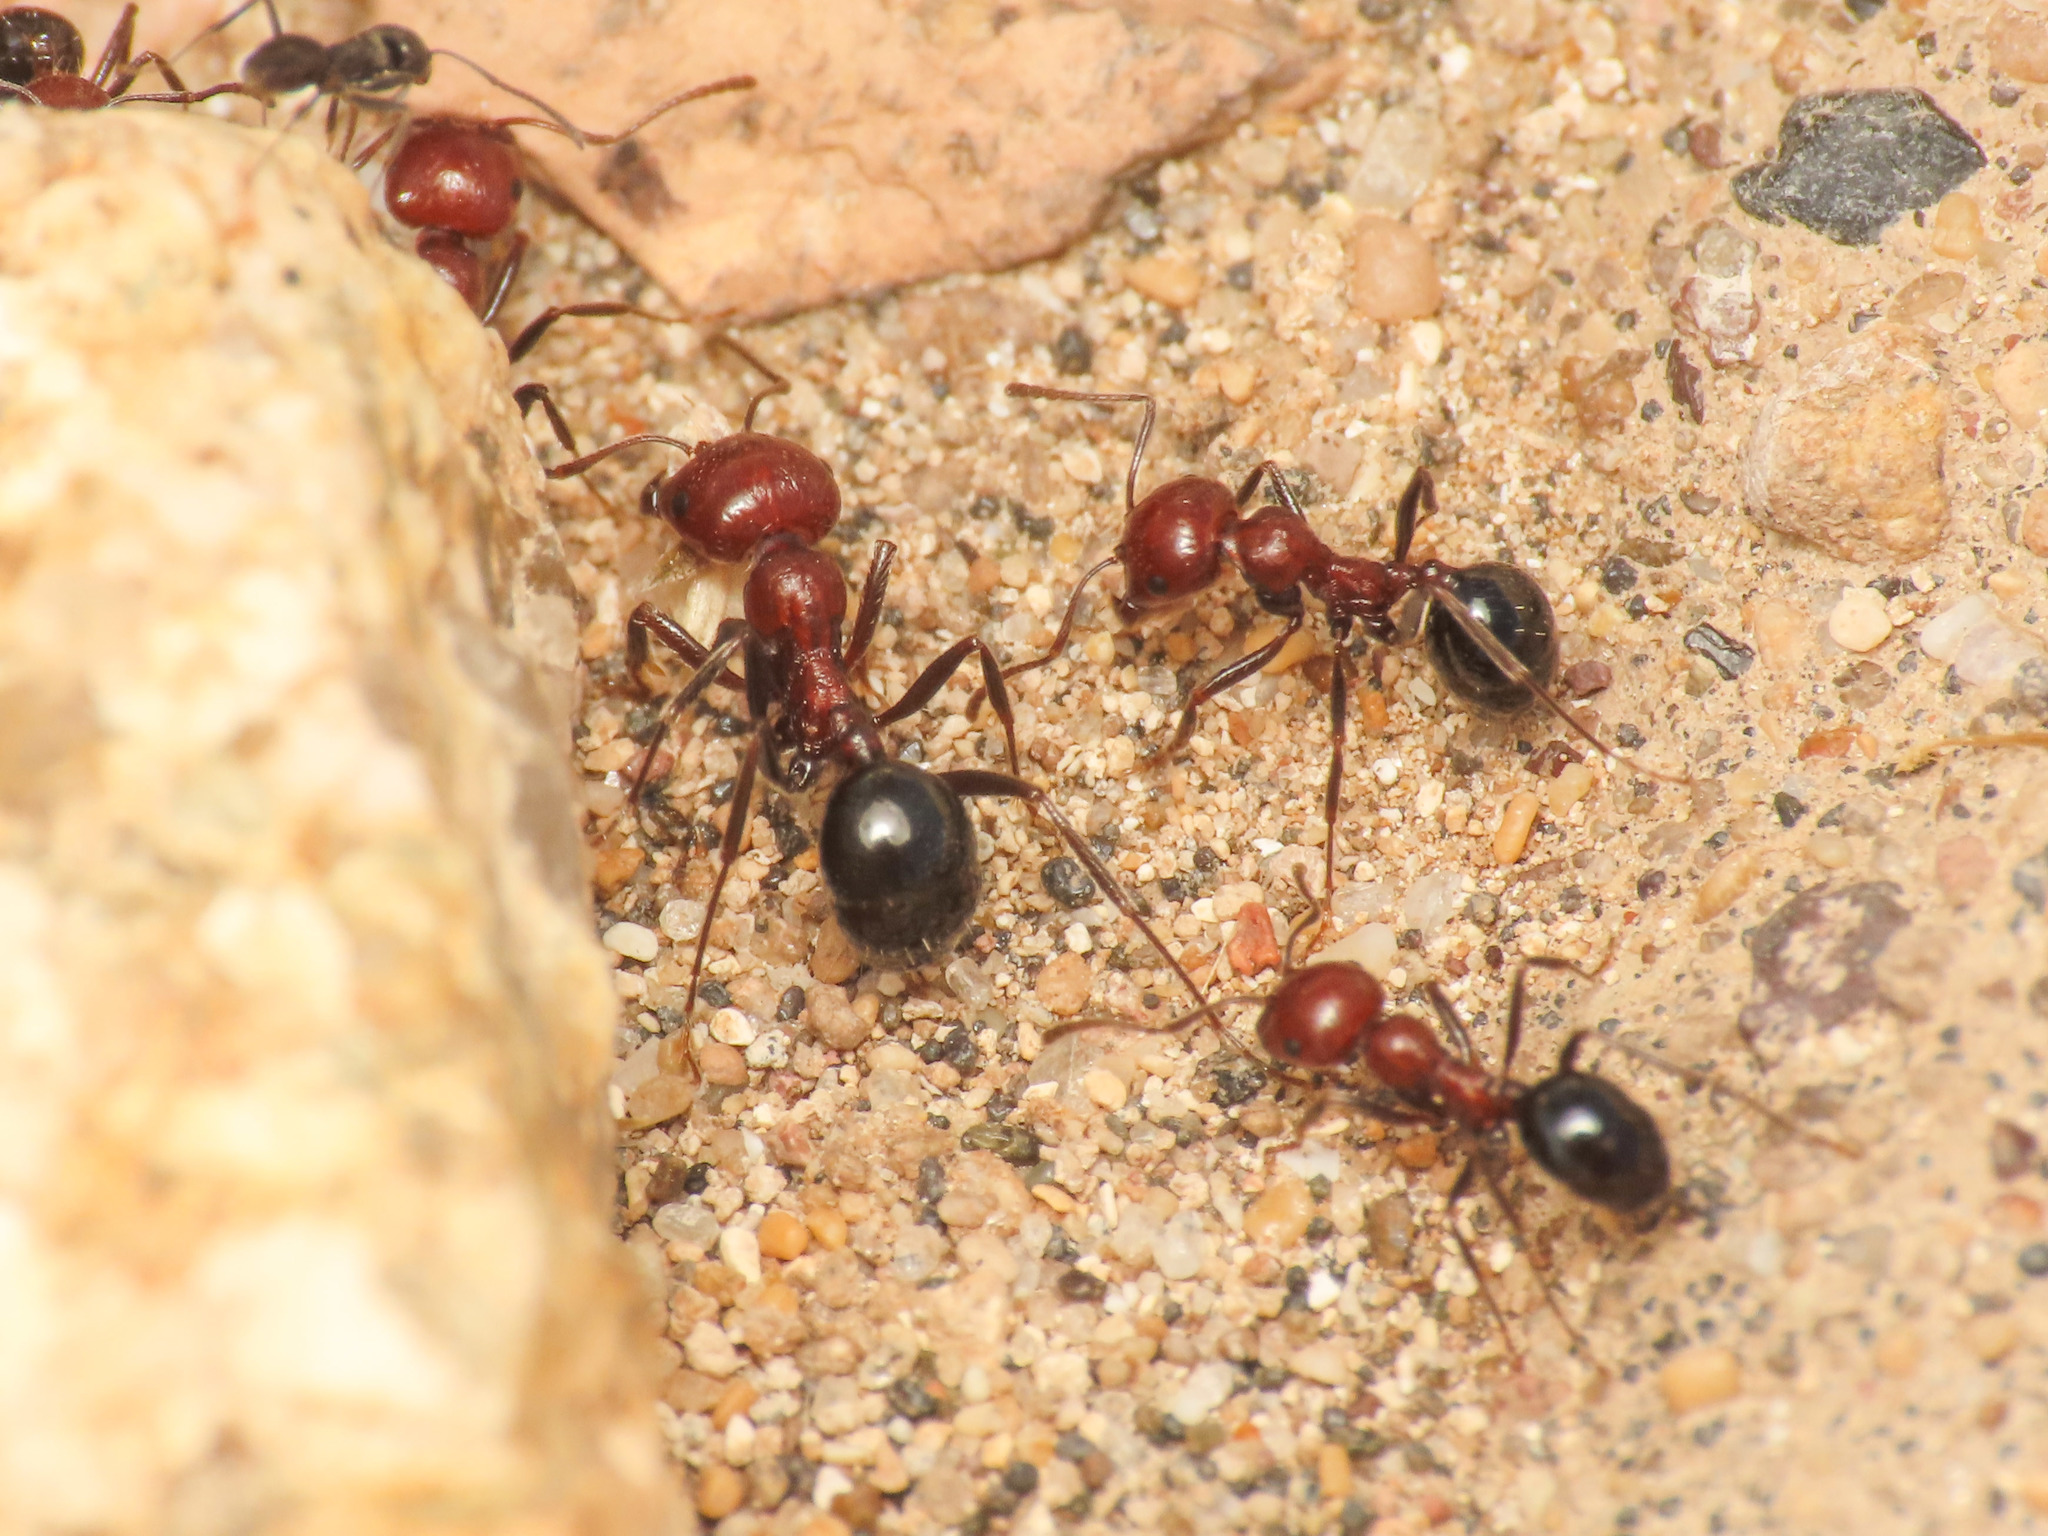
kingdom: Animalia
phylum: Arthropoda
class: Insecta
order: Hymenoptera
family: Formicidae
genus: Messor
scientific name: Messor minor
